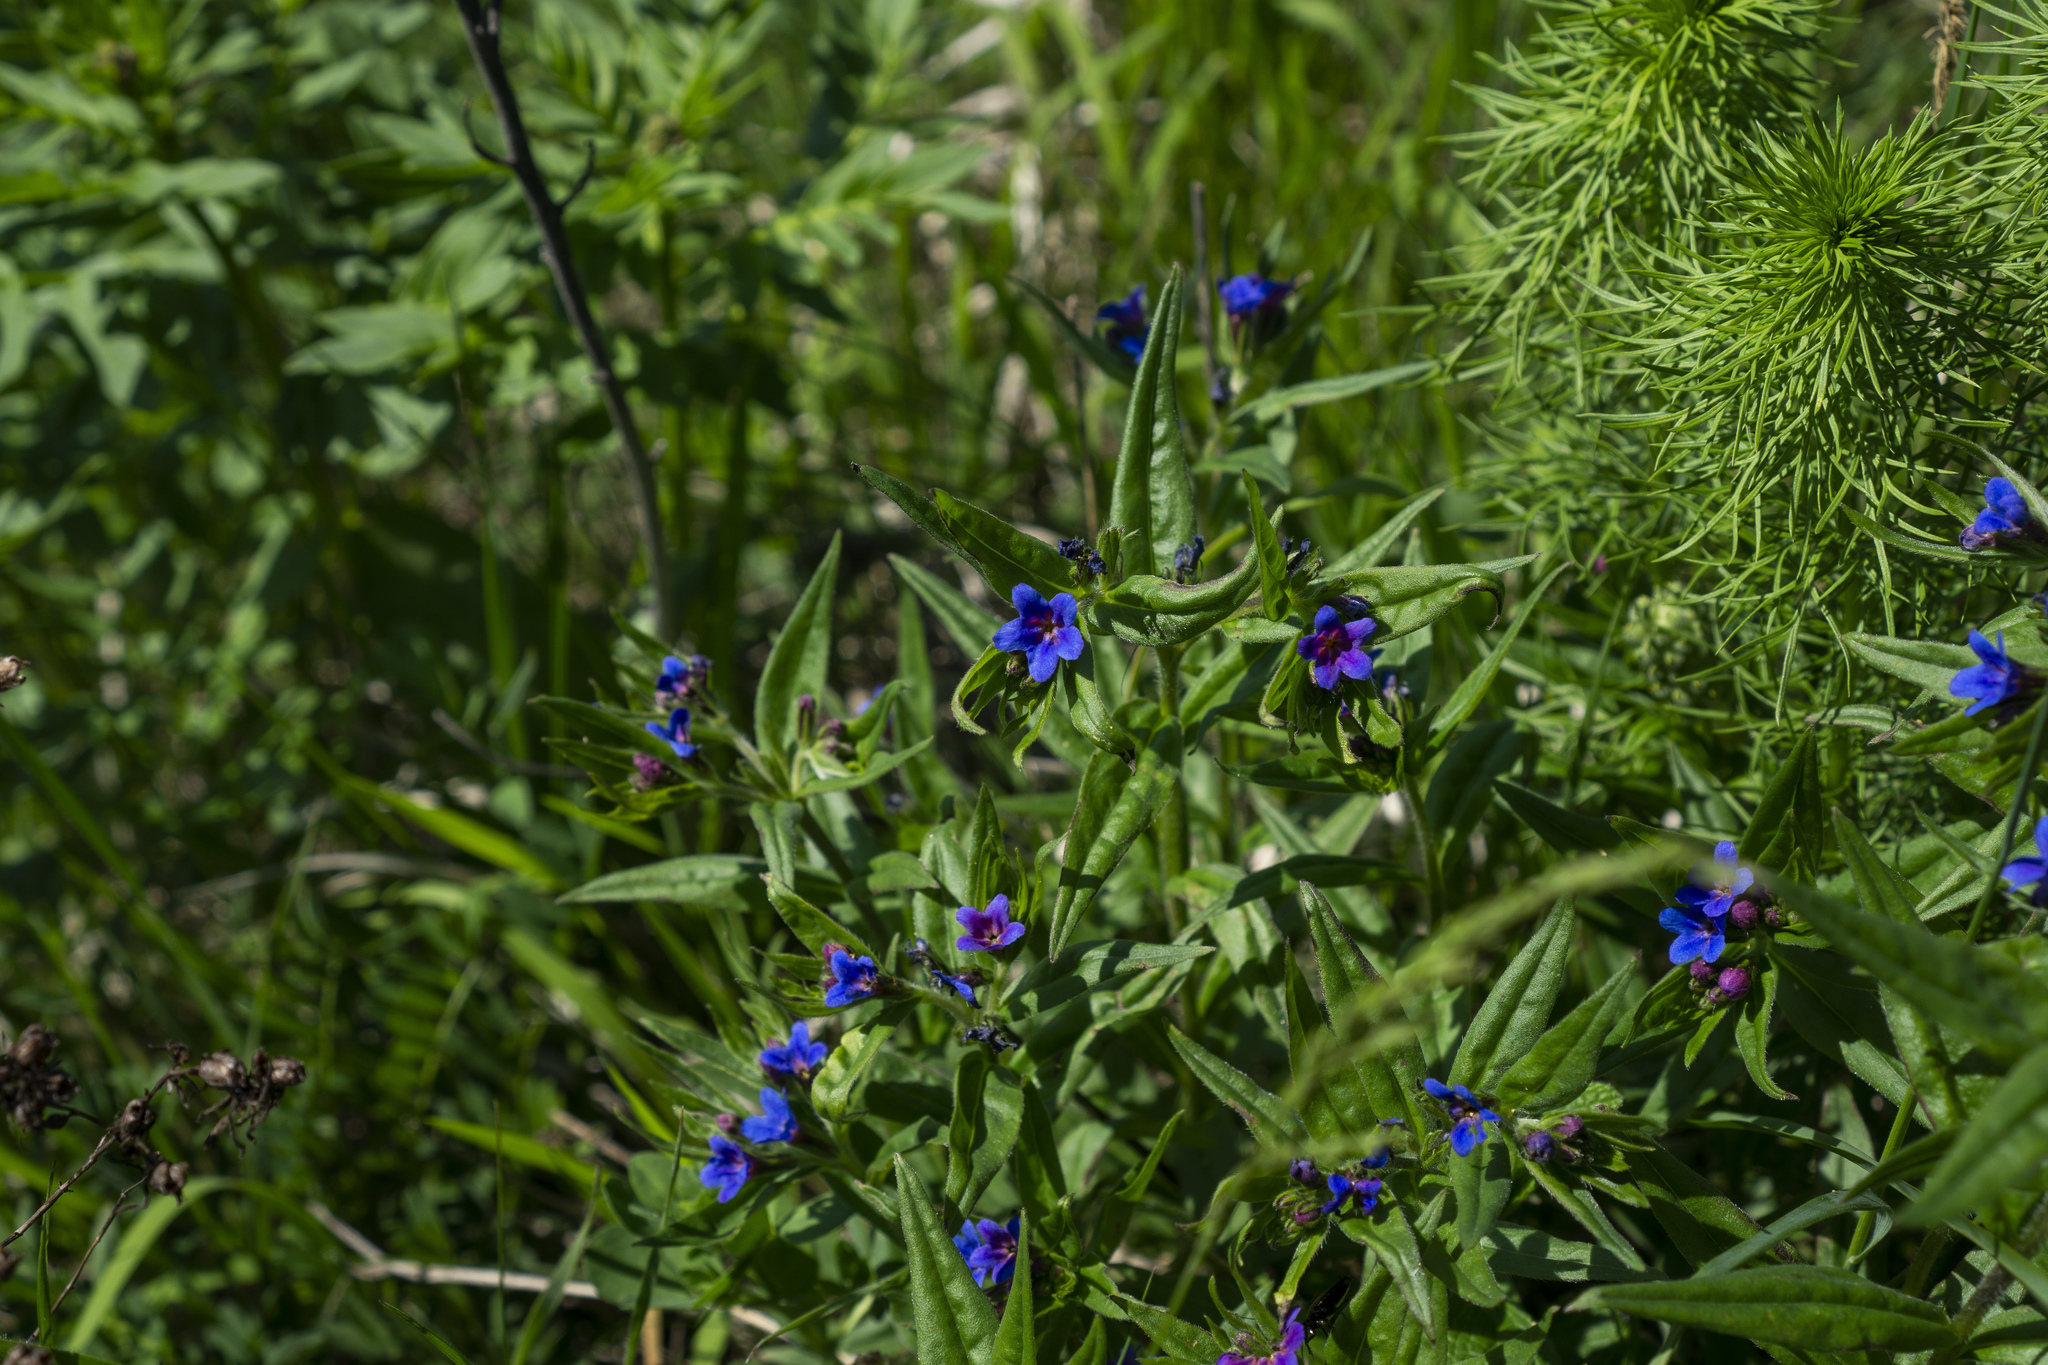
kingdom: Plantae
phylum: Tracheophyta
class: Magnoliopsida
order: Boraginales
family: Boraginaceae
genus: Aegonychon
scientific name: Aegonychon purpurocaeruleum
